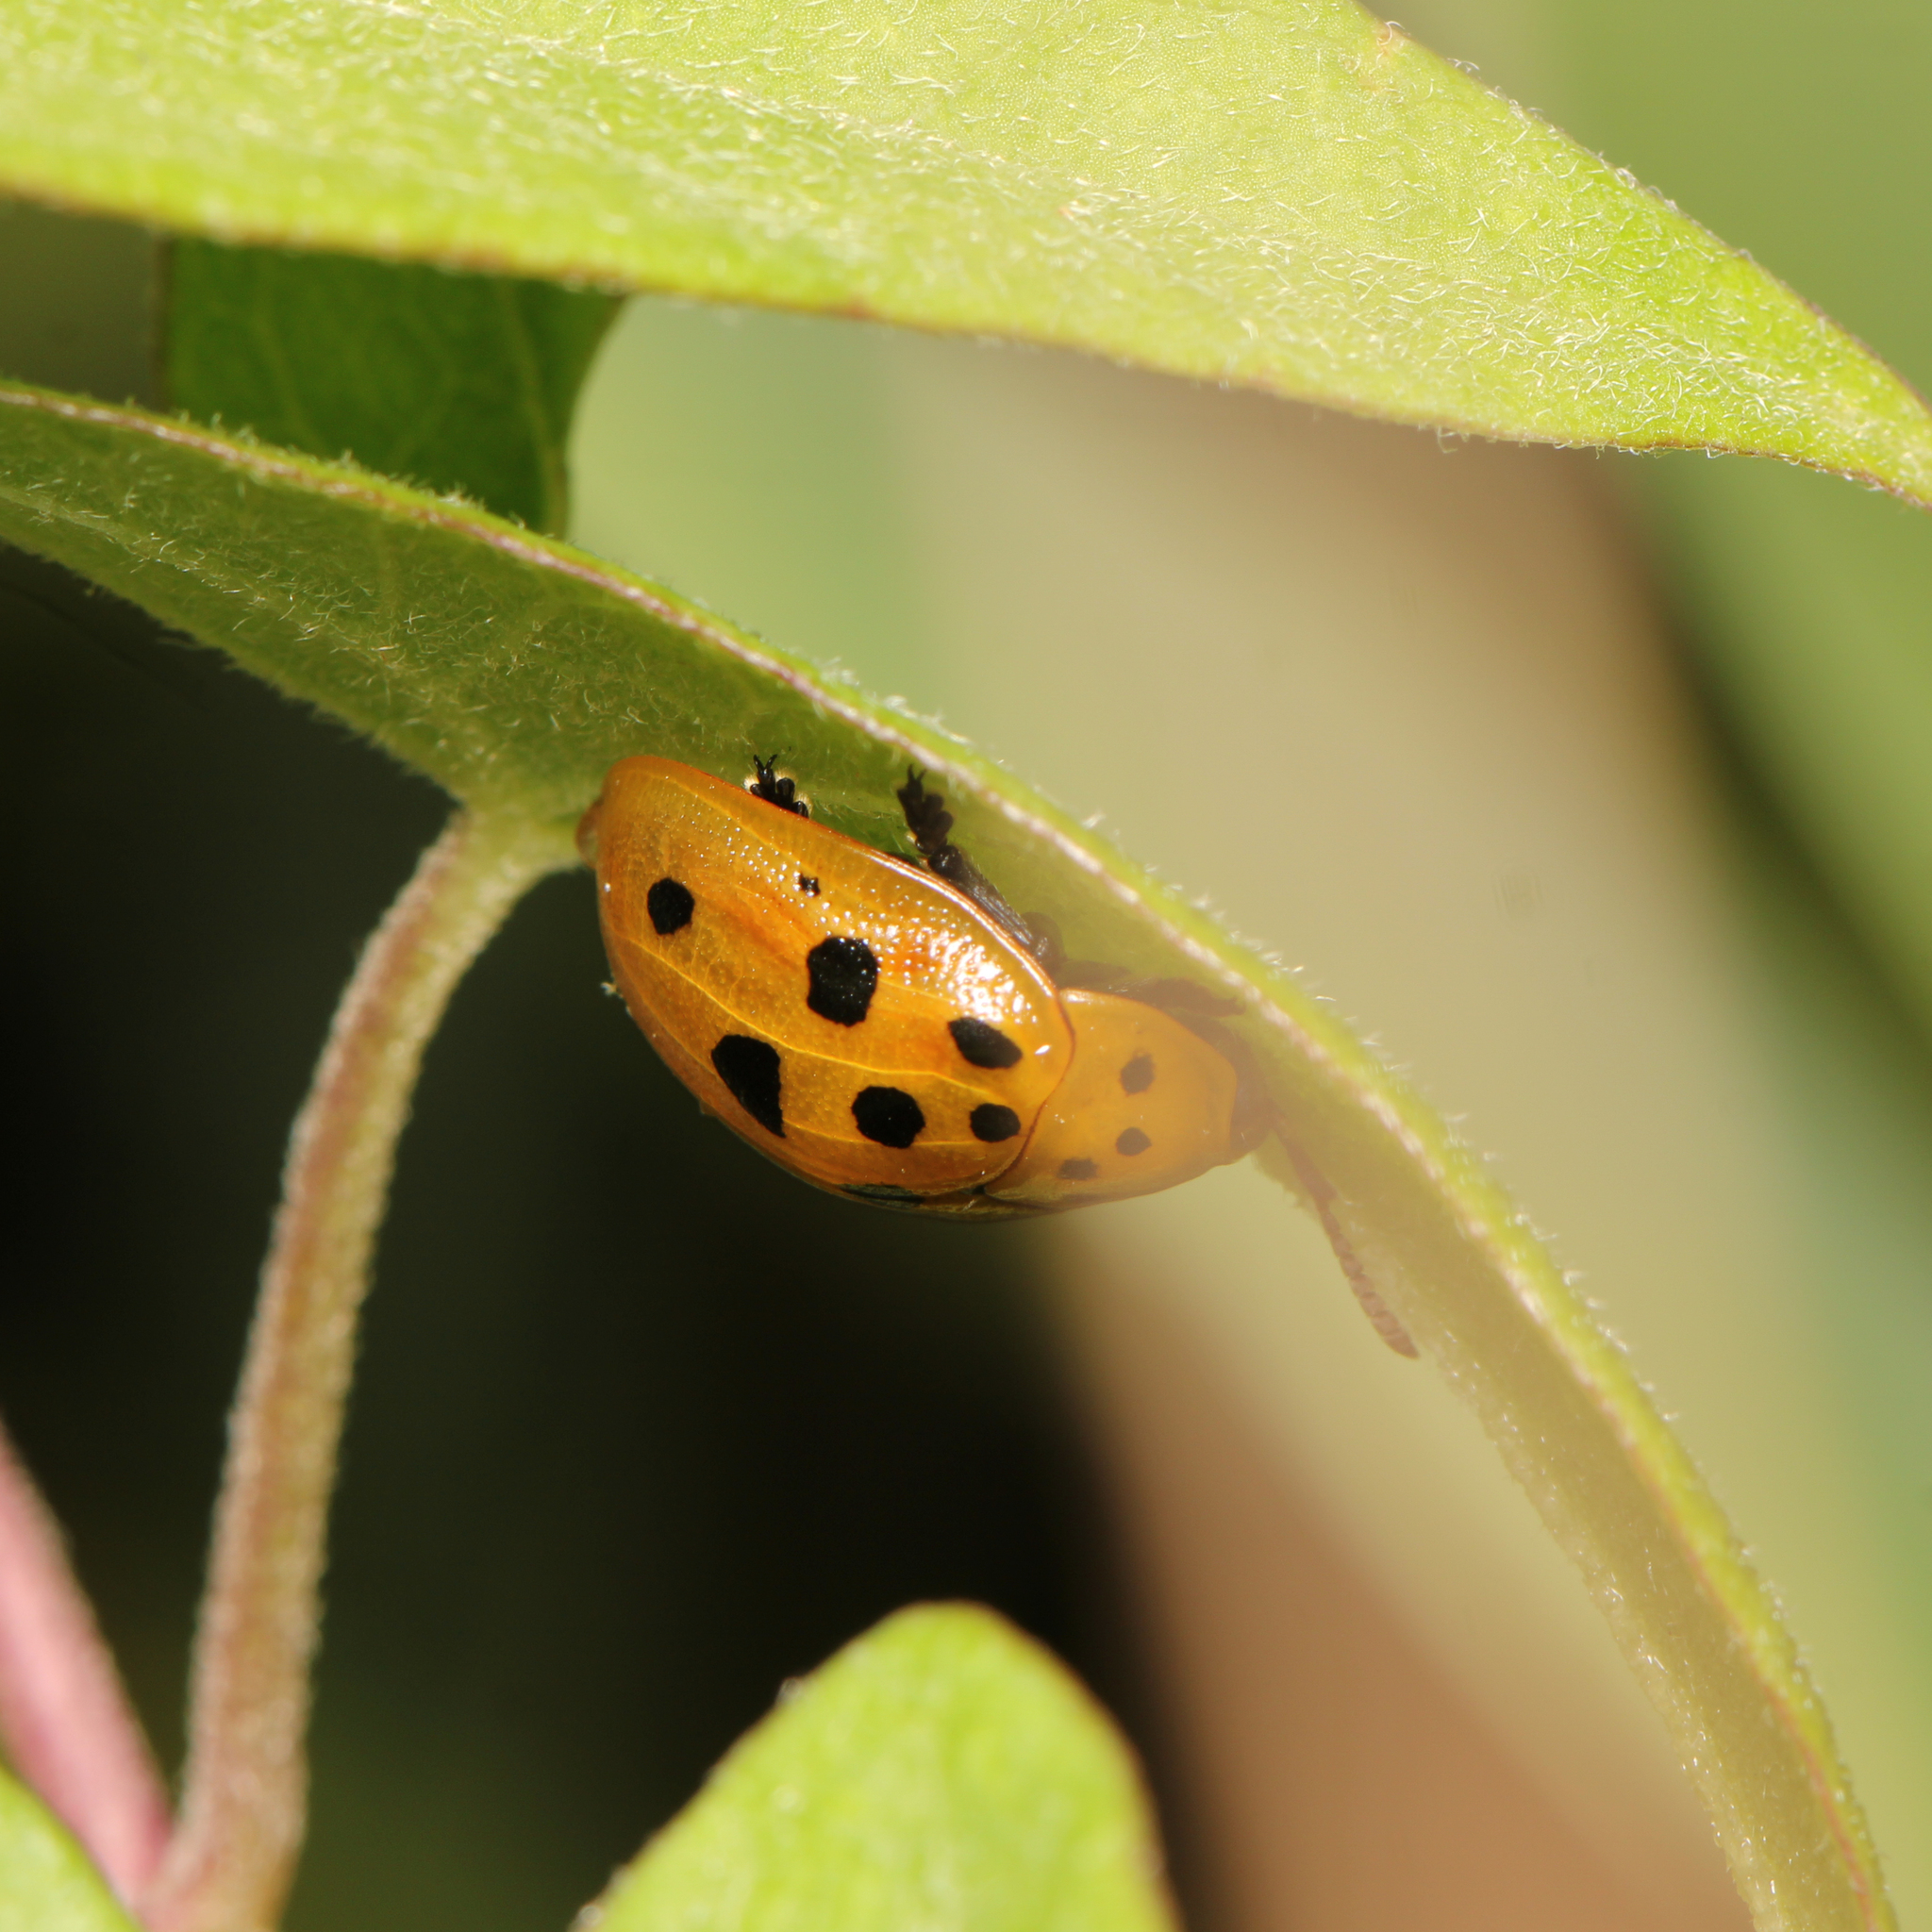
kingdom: Animalia
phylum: Arthropoda
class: Insecta
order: Coleoptera
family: Chrysomelidae
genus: Chelymorpha
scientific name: Chelymorpha cassidea
